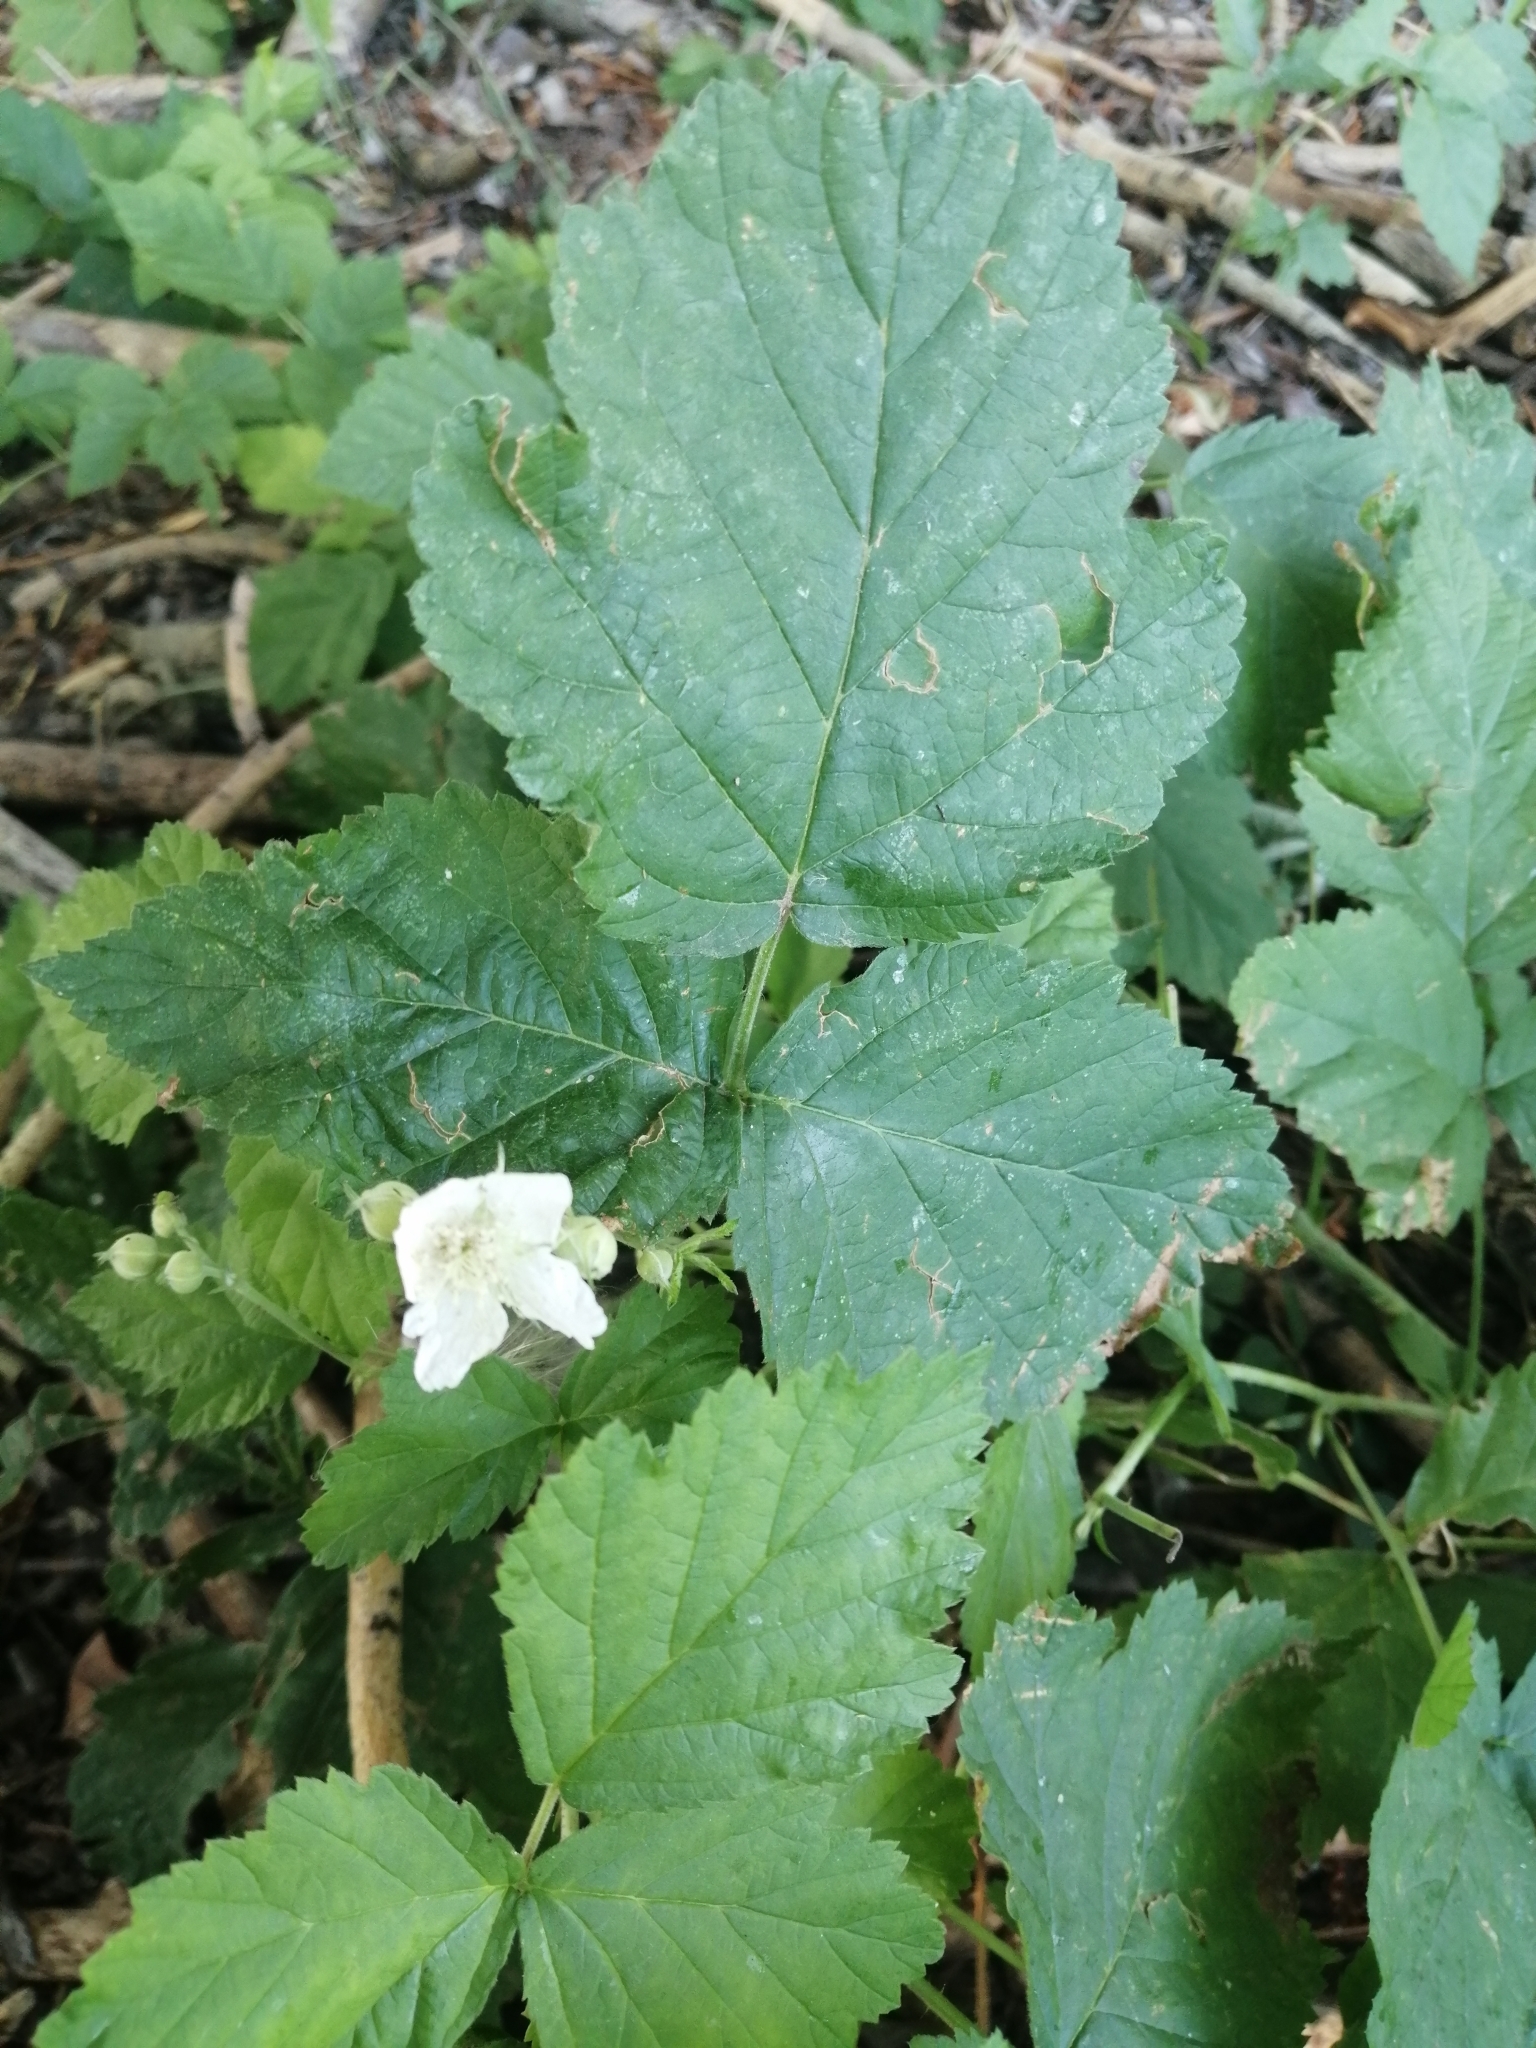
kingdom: Plantae
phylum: Tracheophyta
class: Magnoliopsida
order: Rosales
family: Rosaceae
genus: Rubus
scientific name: Rubus caesius
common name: Dewberry
